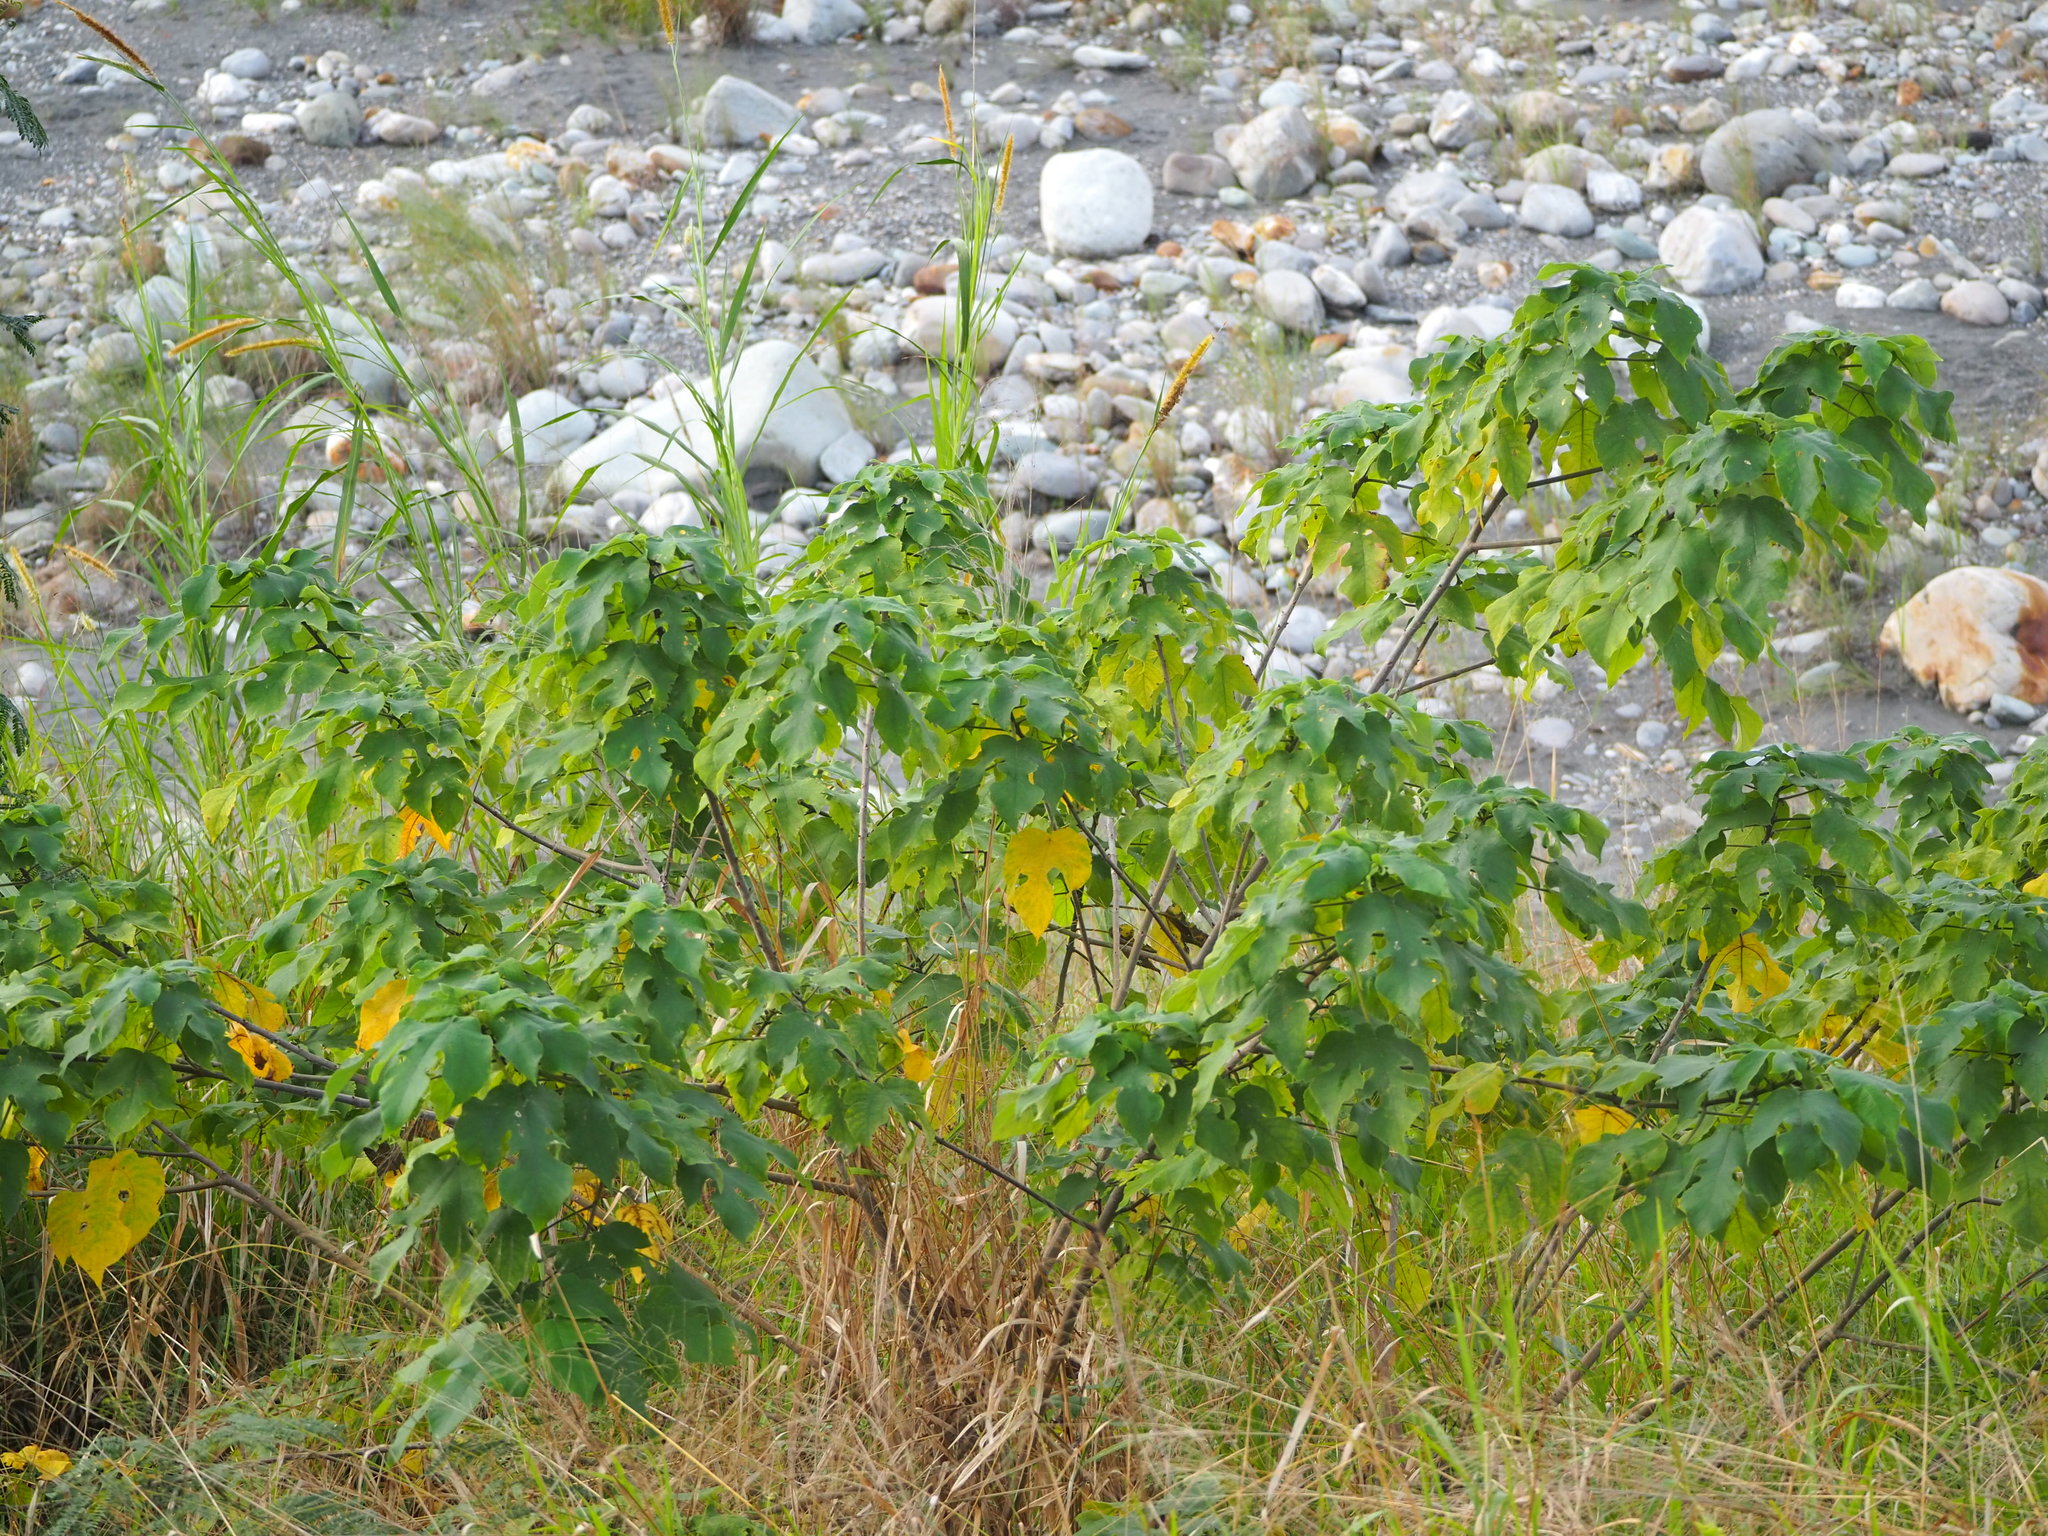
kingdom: Plantae
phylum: Tracheophyta
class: Magnoliopsida
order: Rosales
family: Moraceae
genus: Broussonetia
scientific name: Broussonetia papyrifera
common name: Paper mulberry
